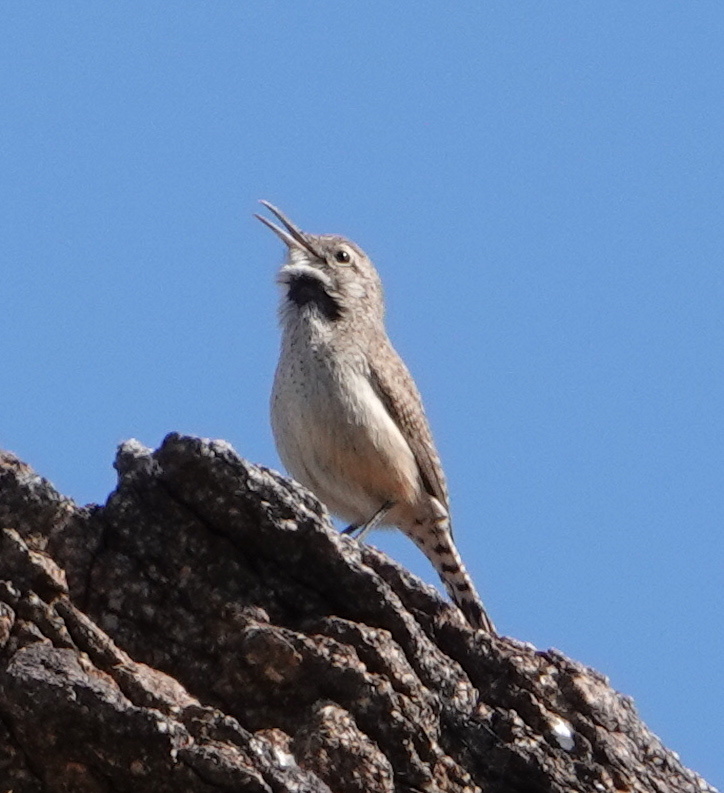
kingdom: Animalia
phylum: Chordata
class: Aves
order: Passeriformes
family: Troglodytidae
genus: Salpinctes
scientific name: Salpinctes obsoletus
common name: Rock wren
